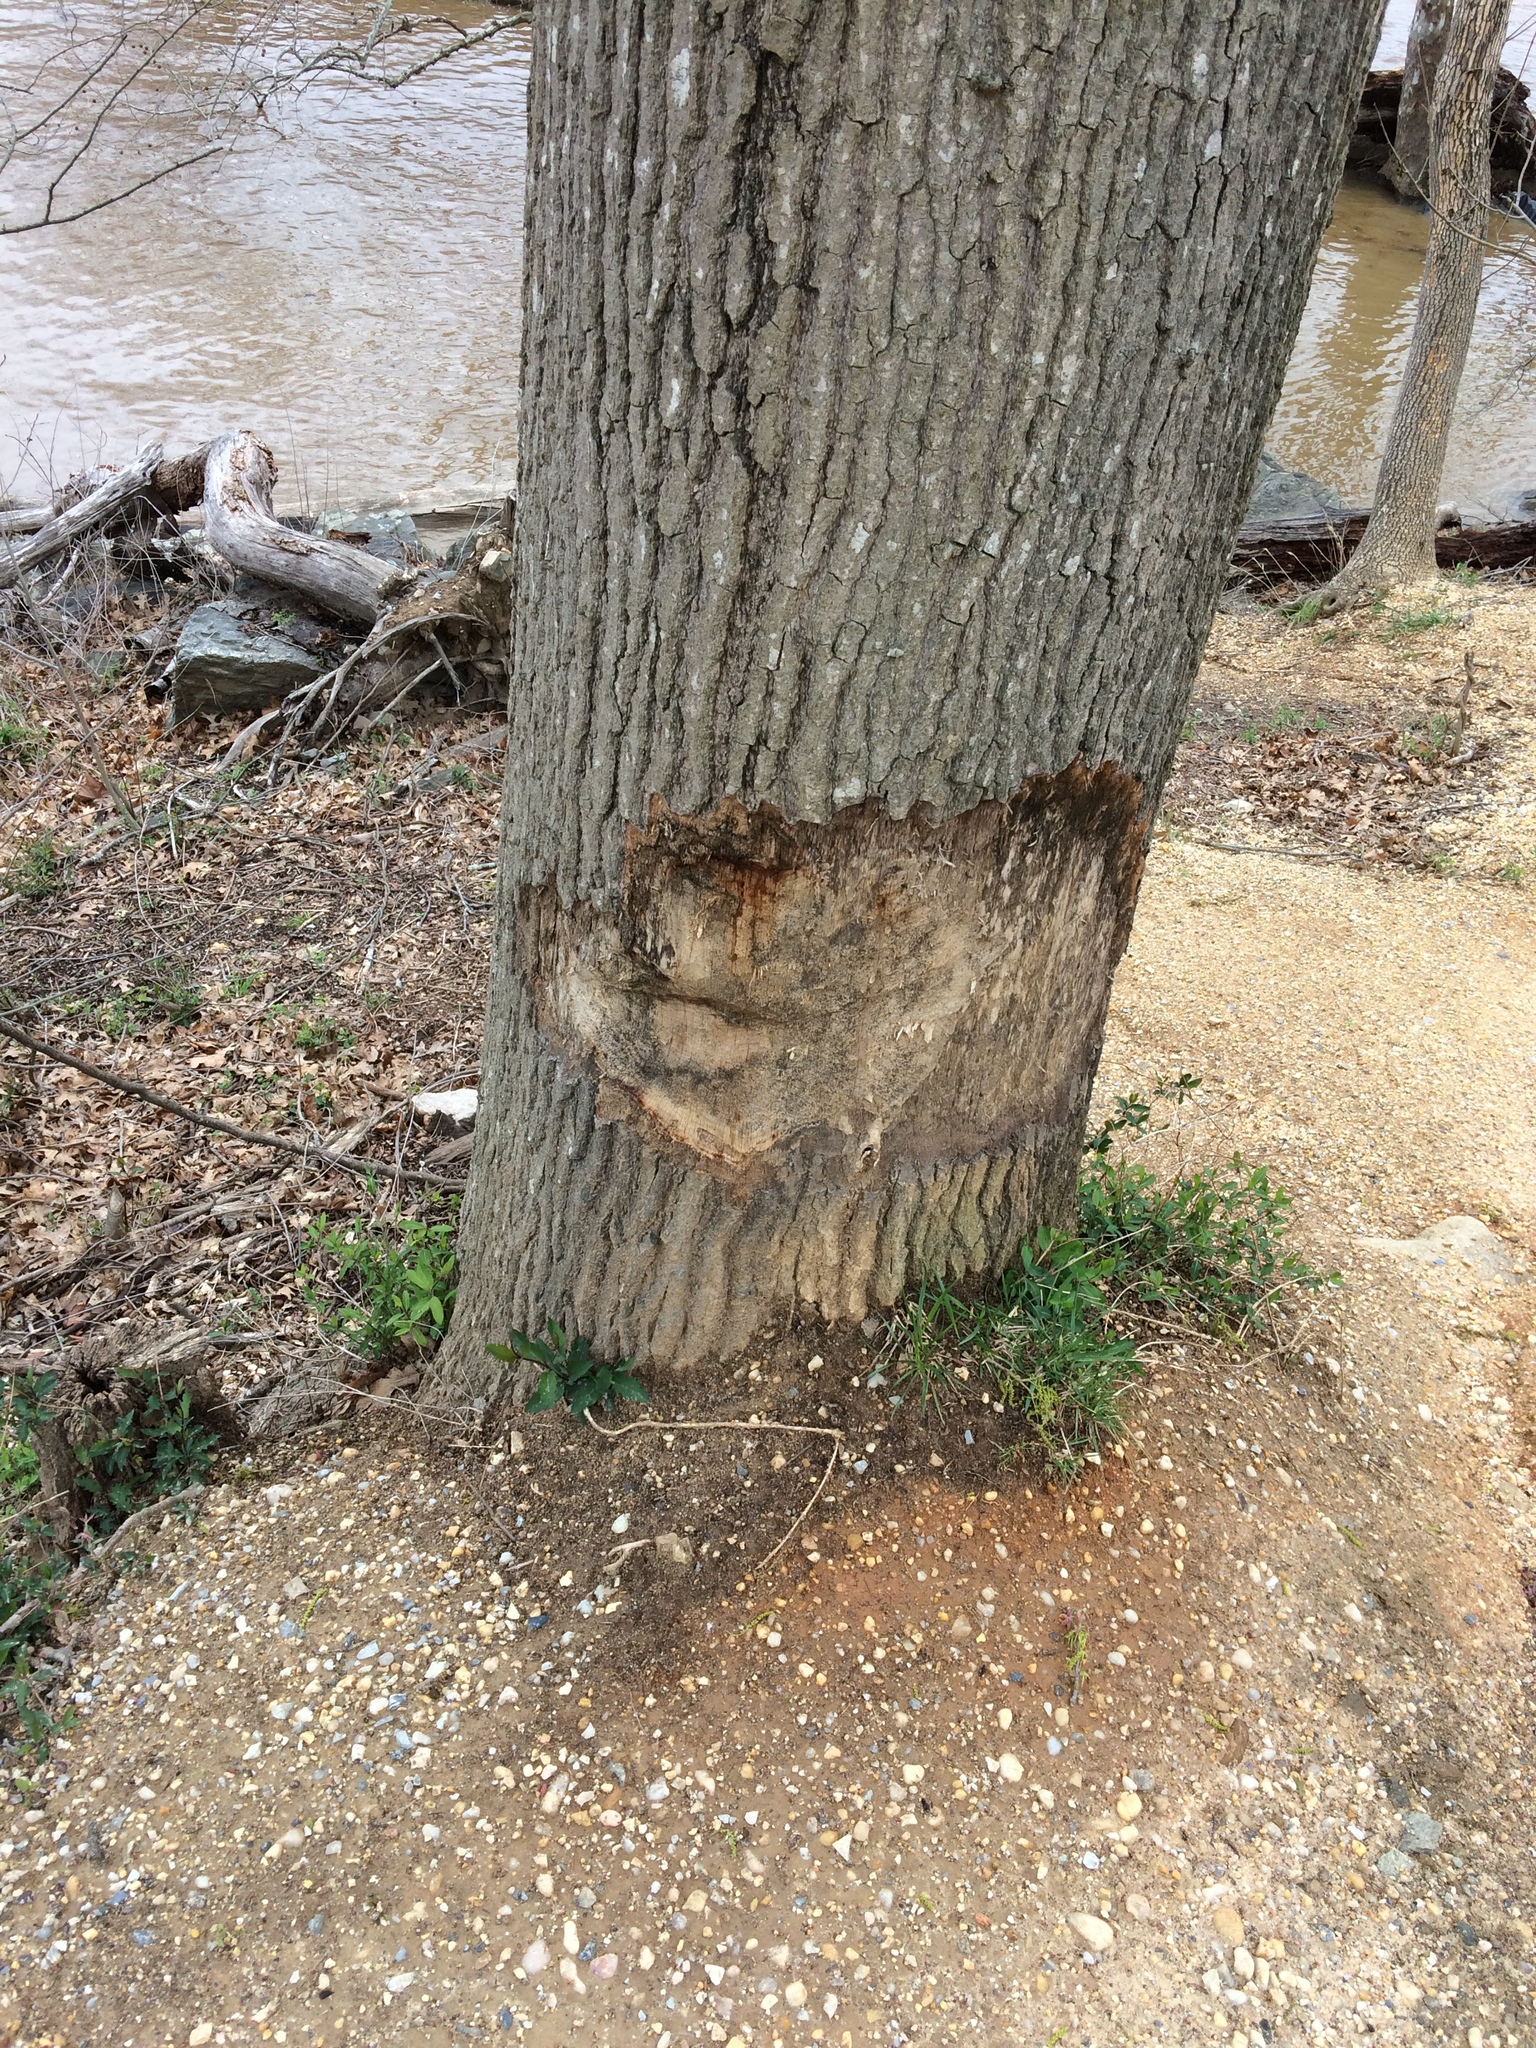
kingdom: Animalia
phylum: Chordata
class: Mammalia
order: Rodentia
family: Castoridae
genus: Castor
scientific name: Castor canadensis
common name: American beaver
